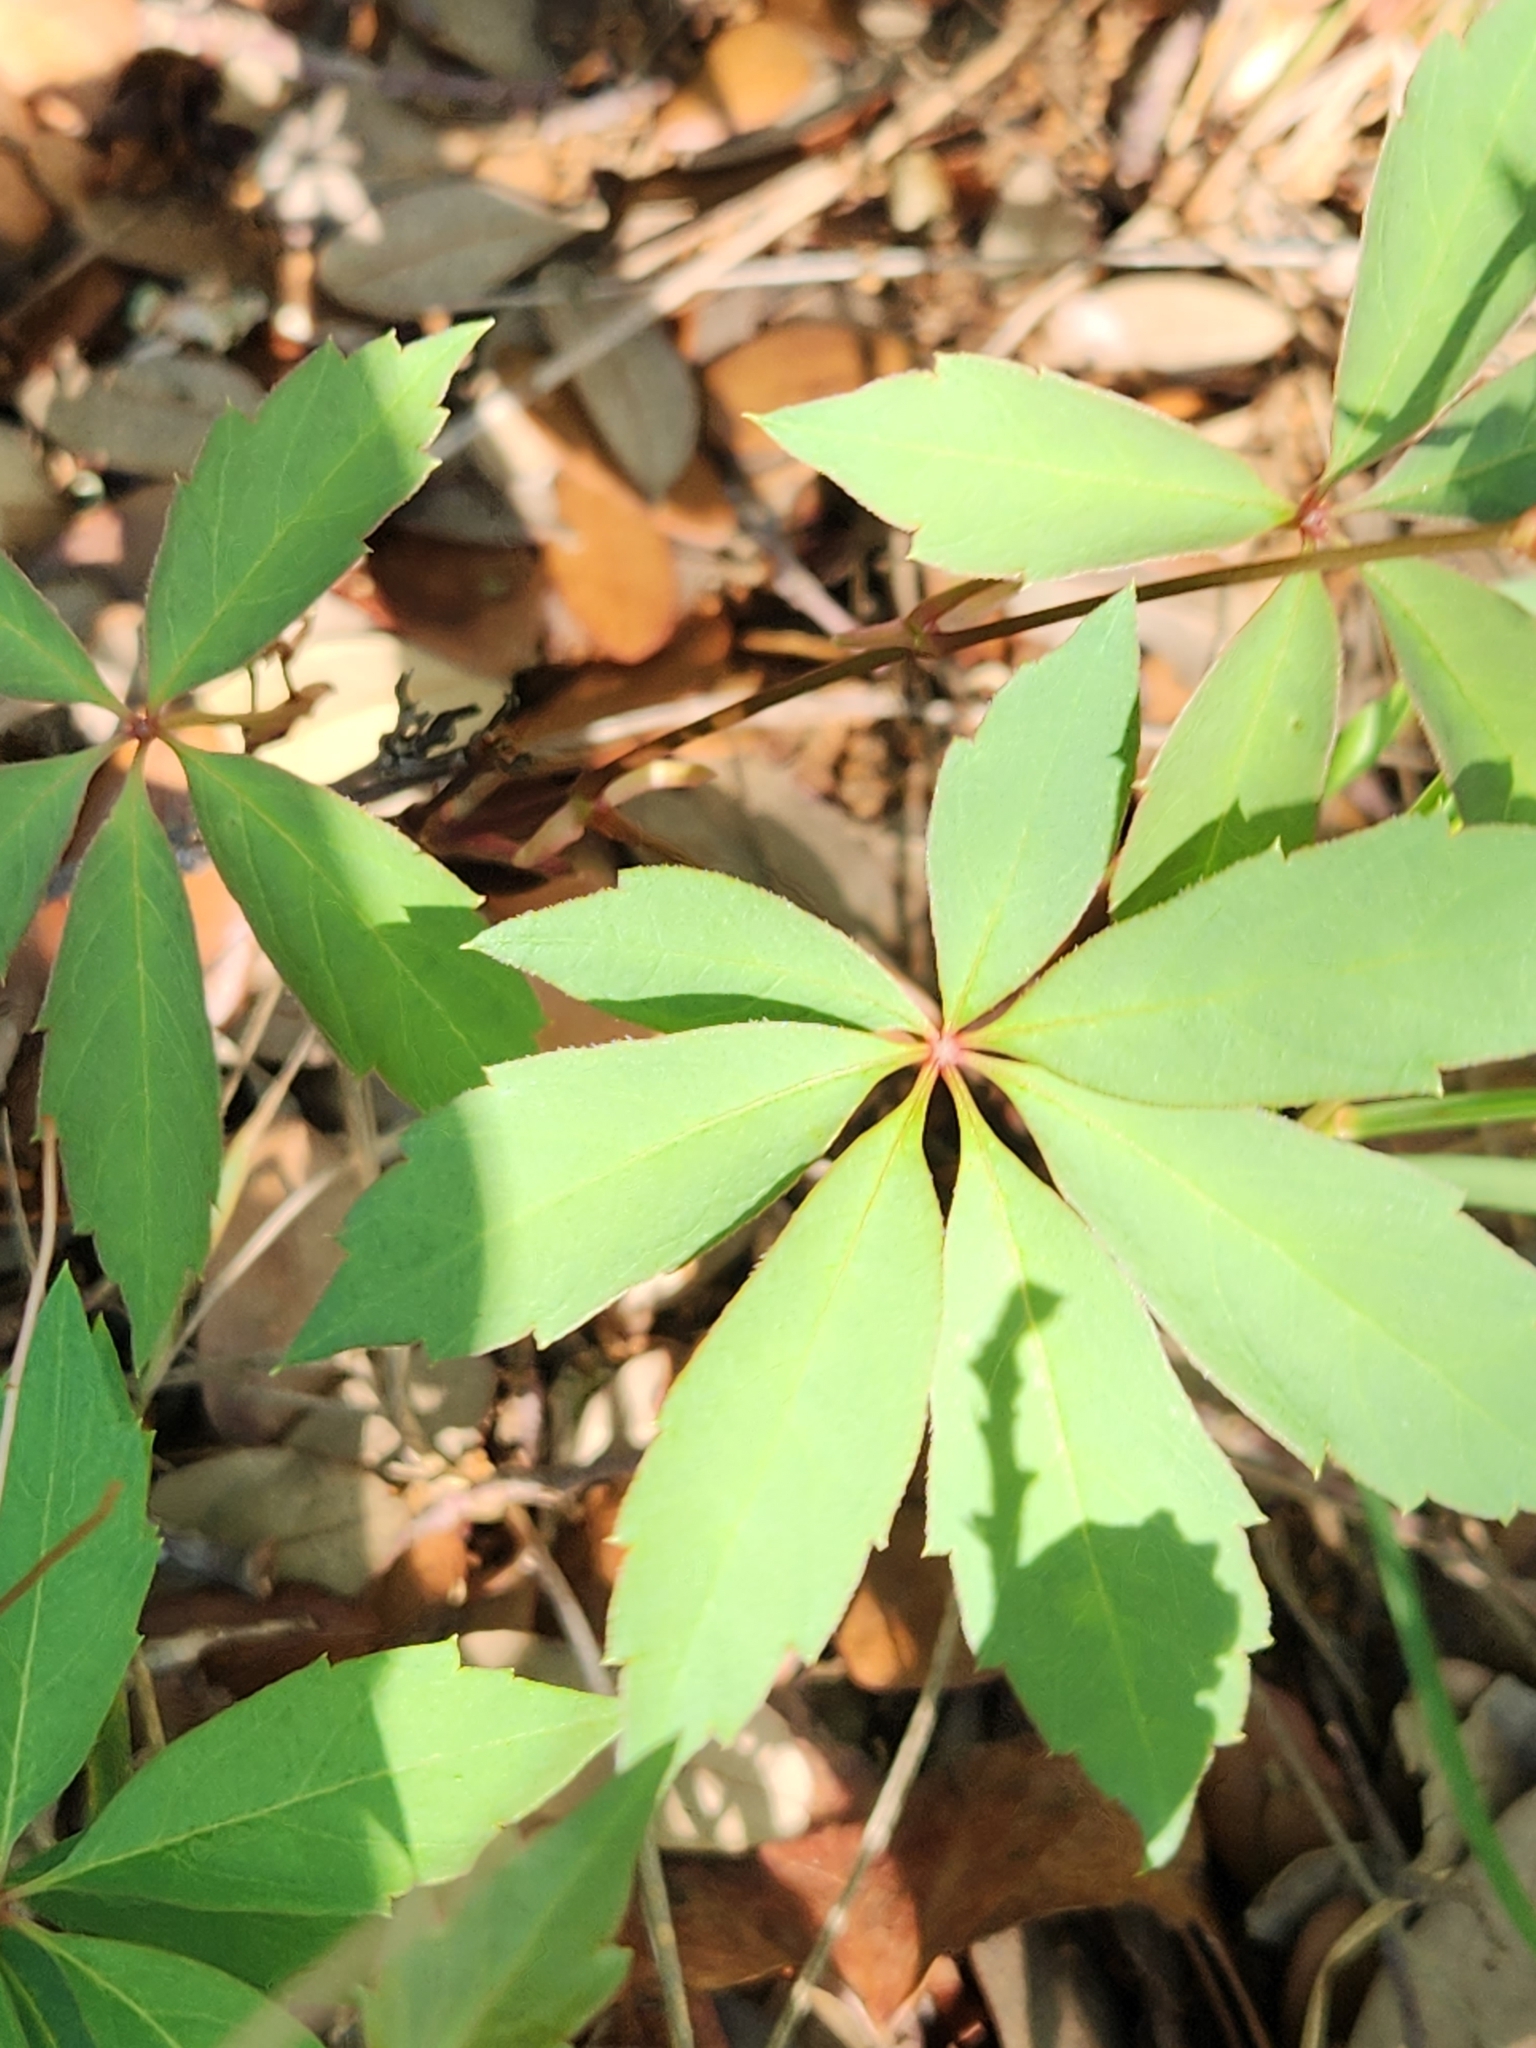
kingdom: Plantae
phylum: Tracheophyta
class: Magnoliopsida
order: Vitales
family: Vitaceae
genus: Parthenocissus
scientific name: Parthenocissus heptaphylla
